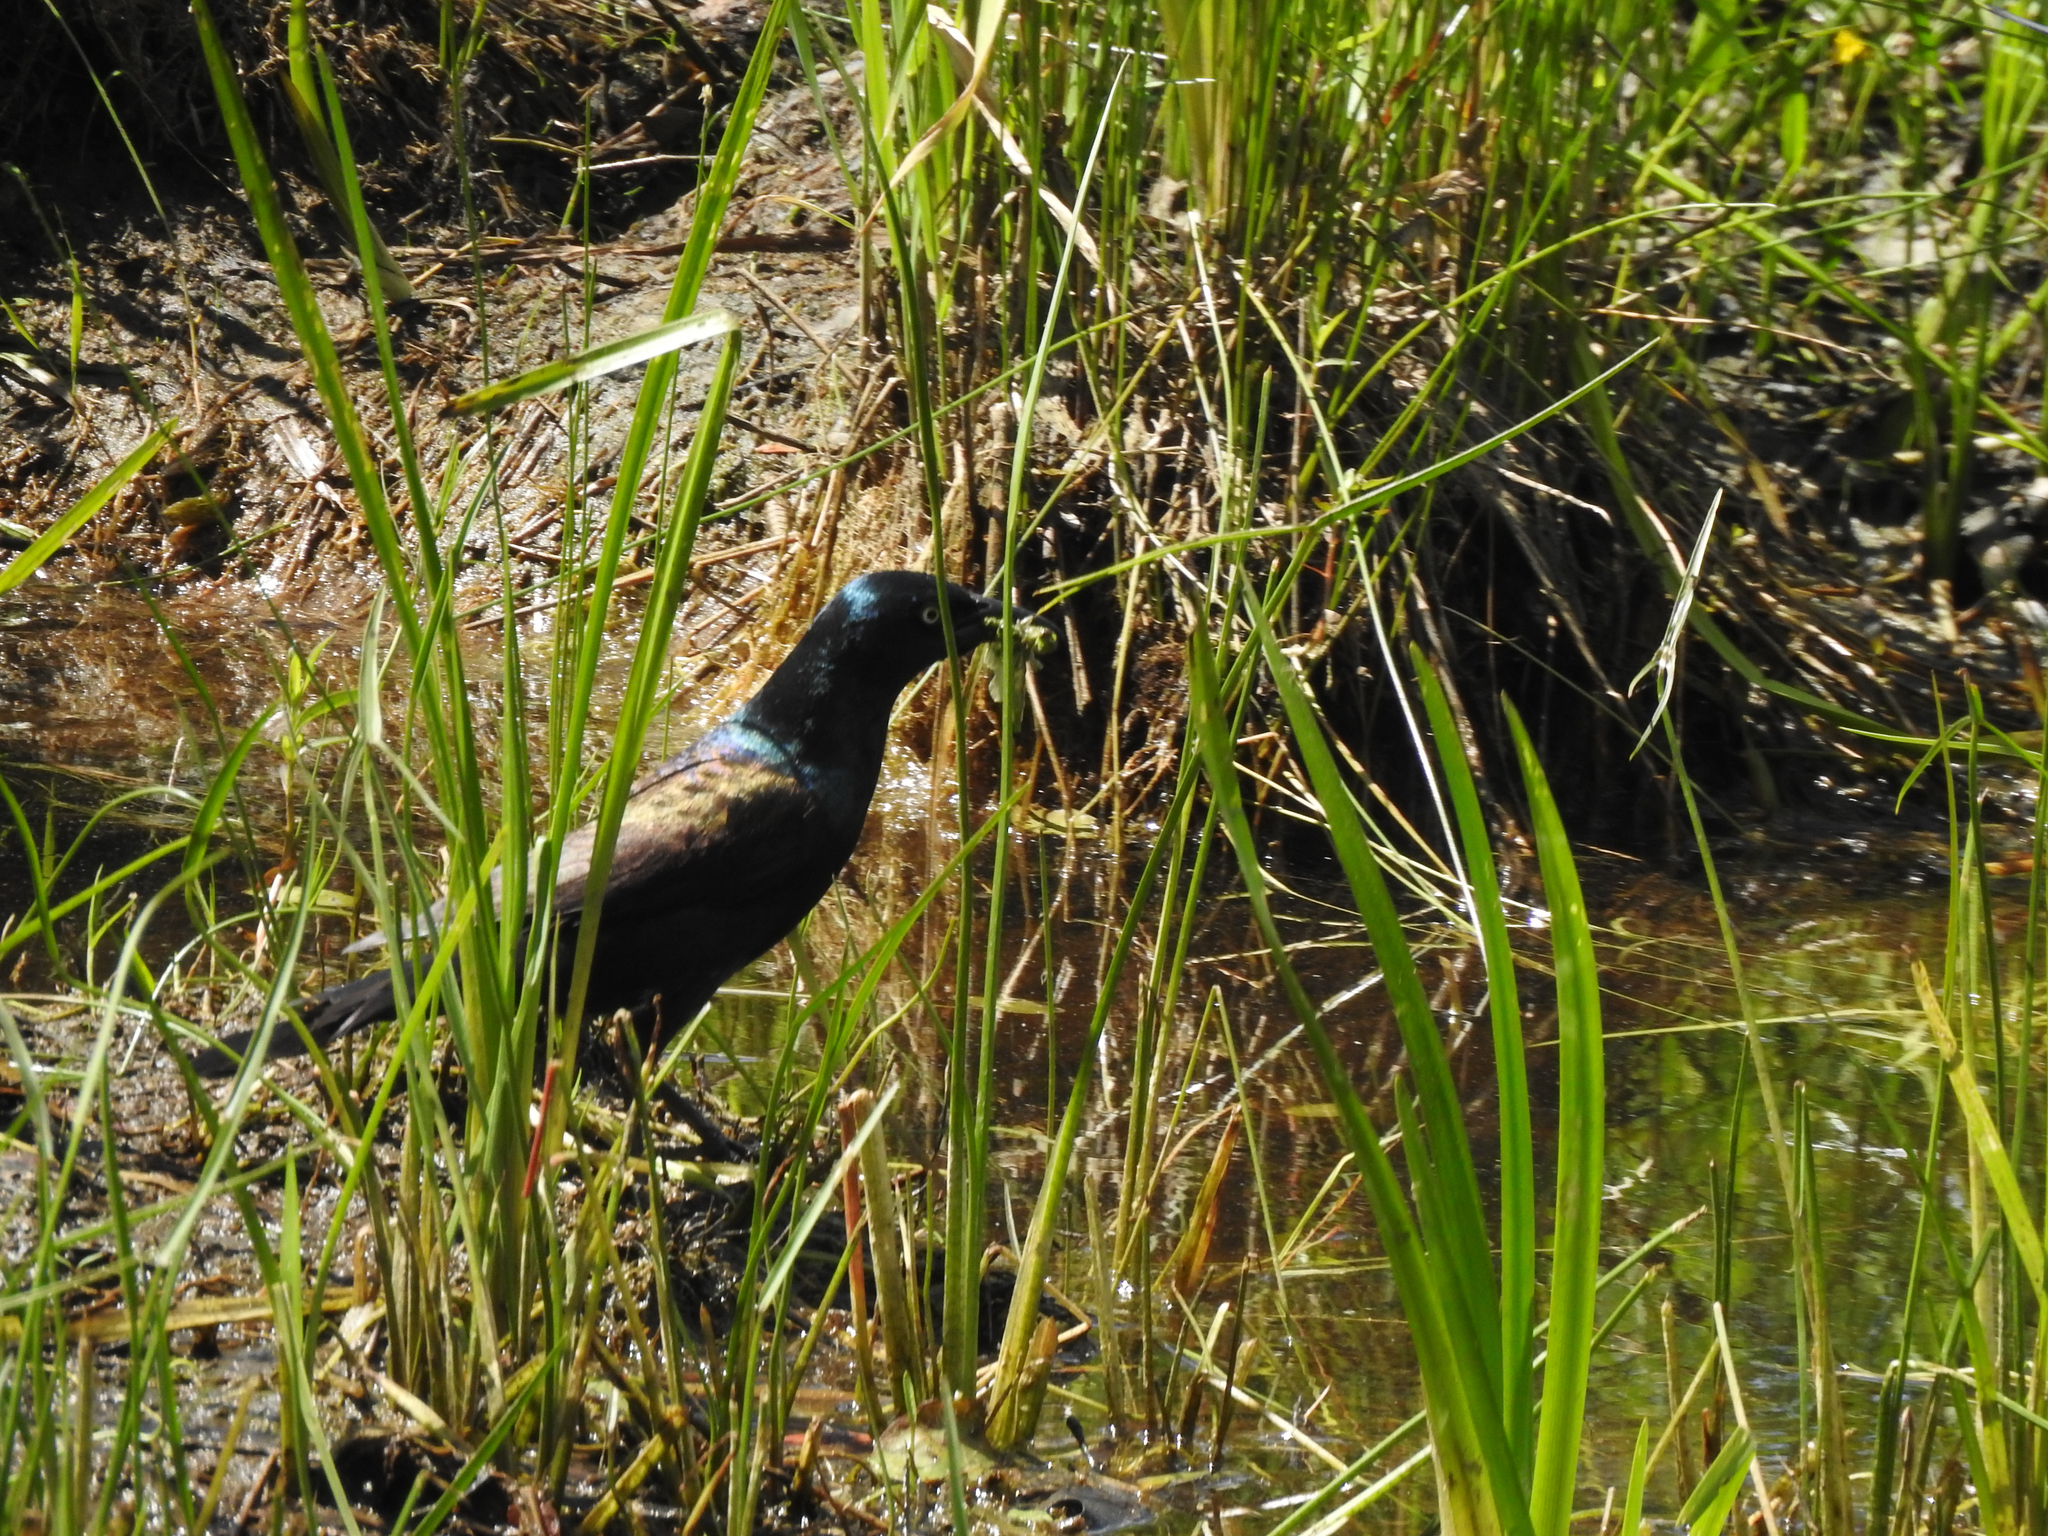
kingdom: Animalia
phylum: Chordata
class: Aves
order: Passeriformes
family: Icteridae
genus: Quiscalus
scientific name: Quiscalus quiscula
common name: Common grackle
